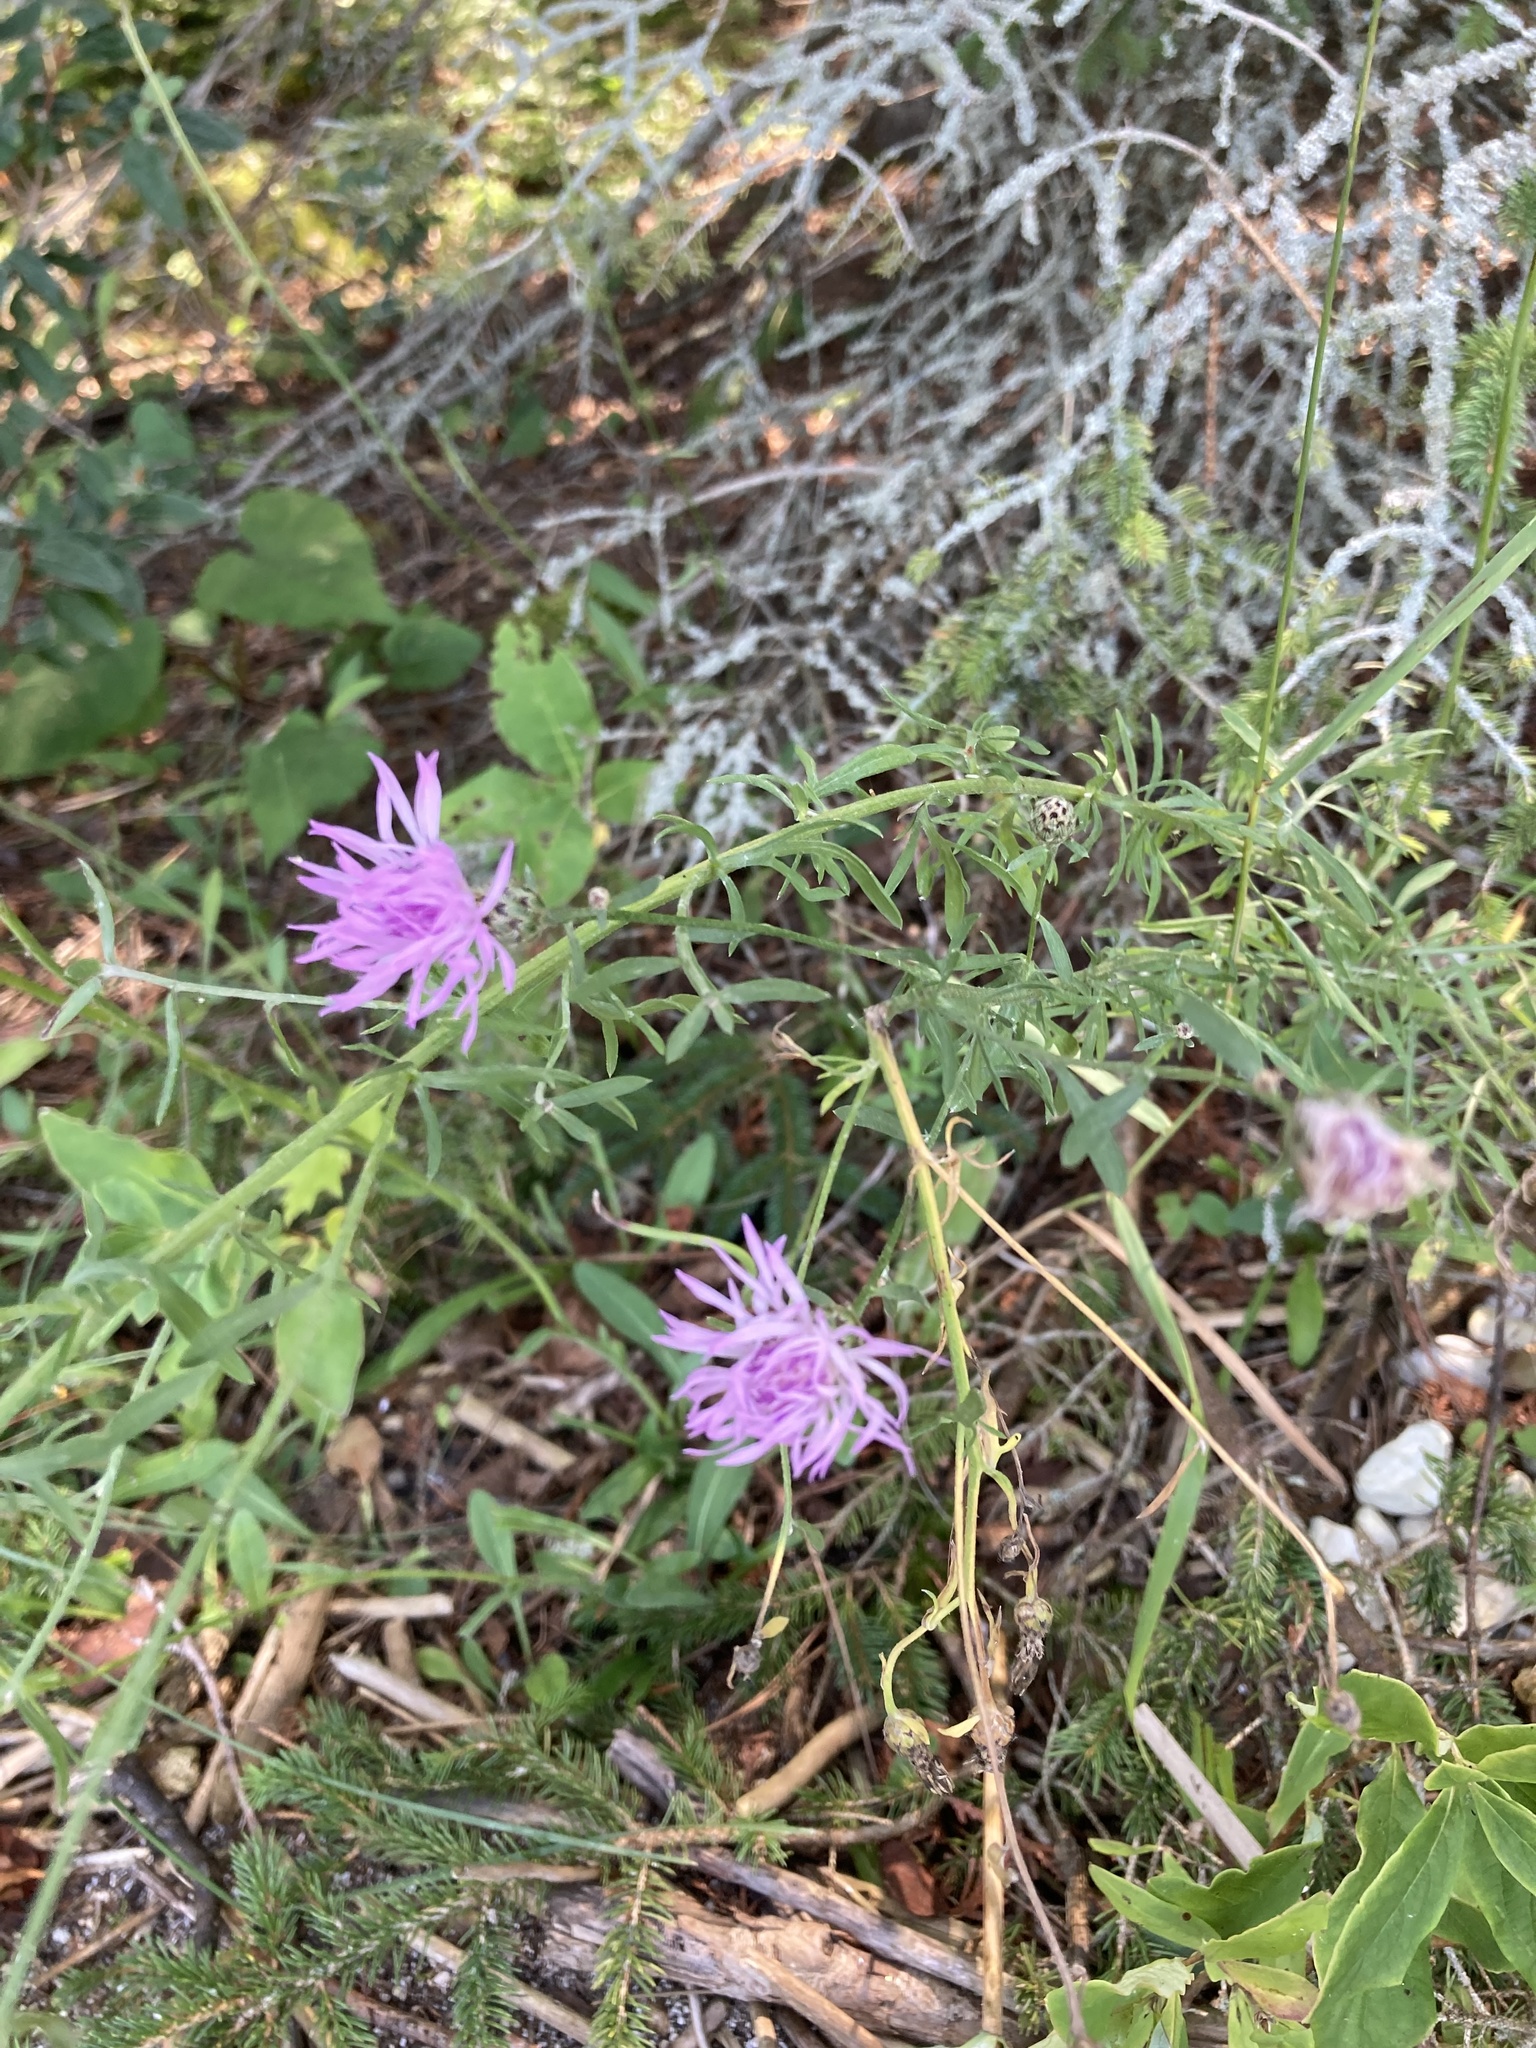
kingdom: Plantae
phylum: Tracheophyta
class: Magnoliopsida
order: Asterales
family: Asteraceae
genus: Centaurea
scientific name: Centaurea stoebe
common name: Spotted knapweed
